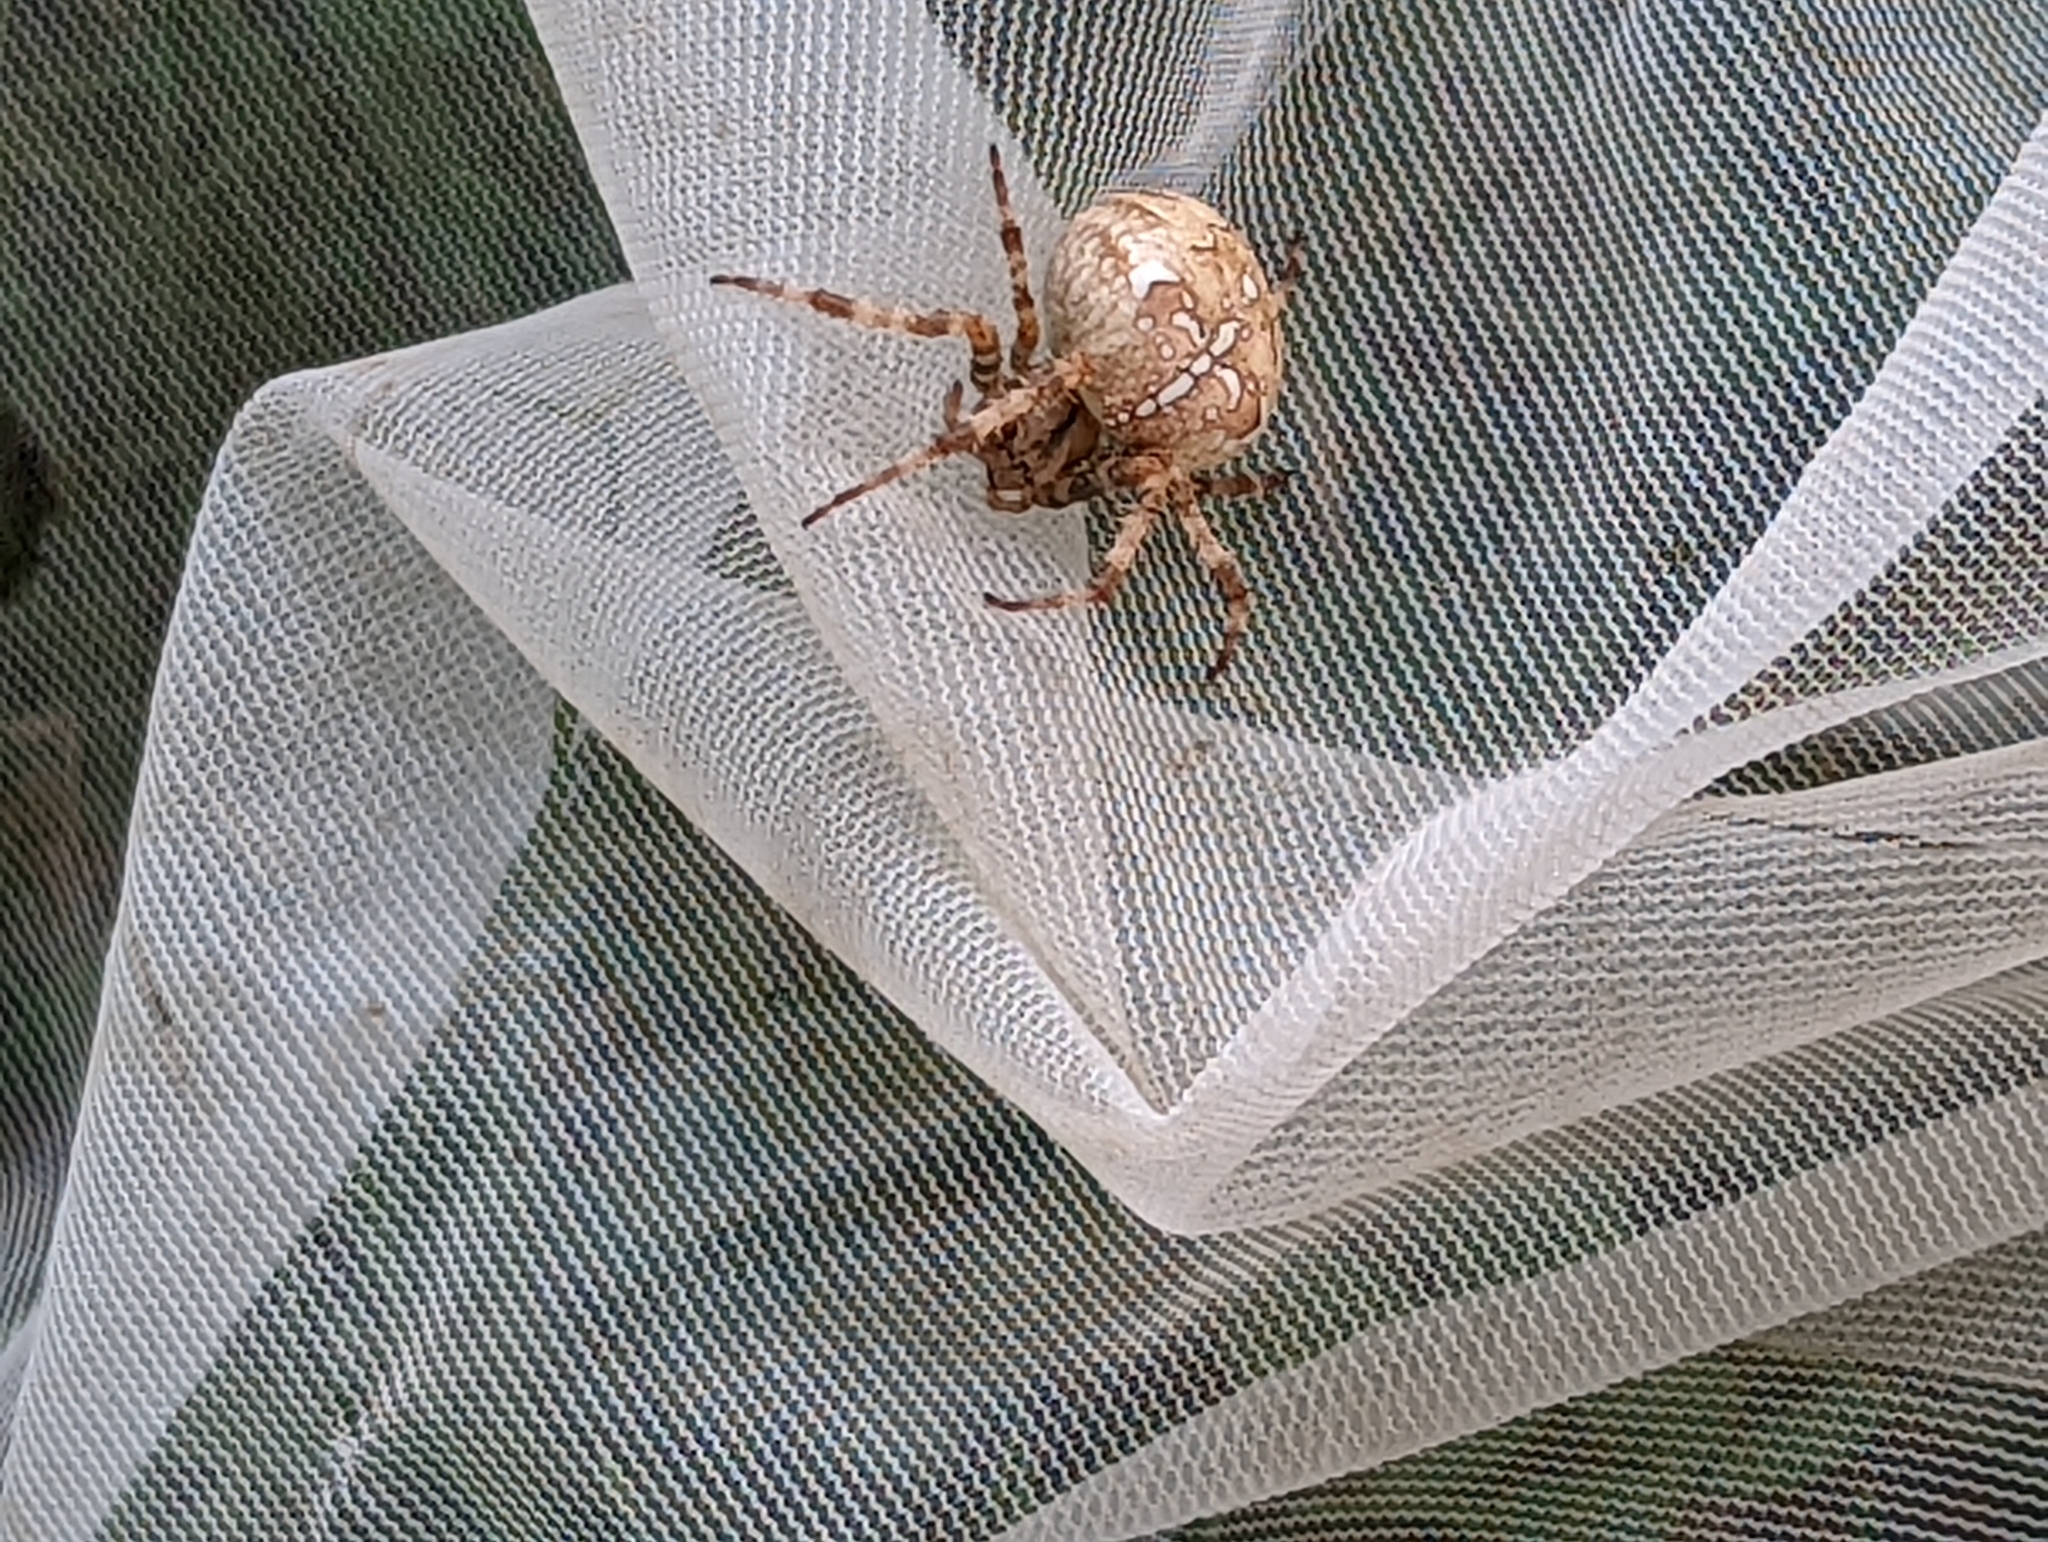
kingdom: Animalia
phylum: Arthropoda
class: Arachnida
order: Araneae
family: Araneidae
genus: Araneus
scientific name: Araneus diadematus
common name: Cross orbweaver
